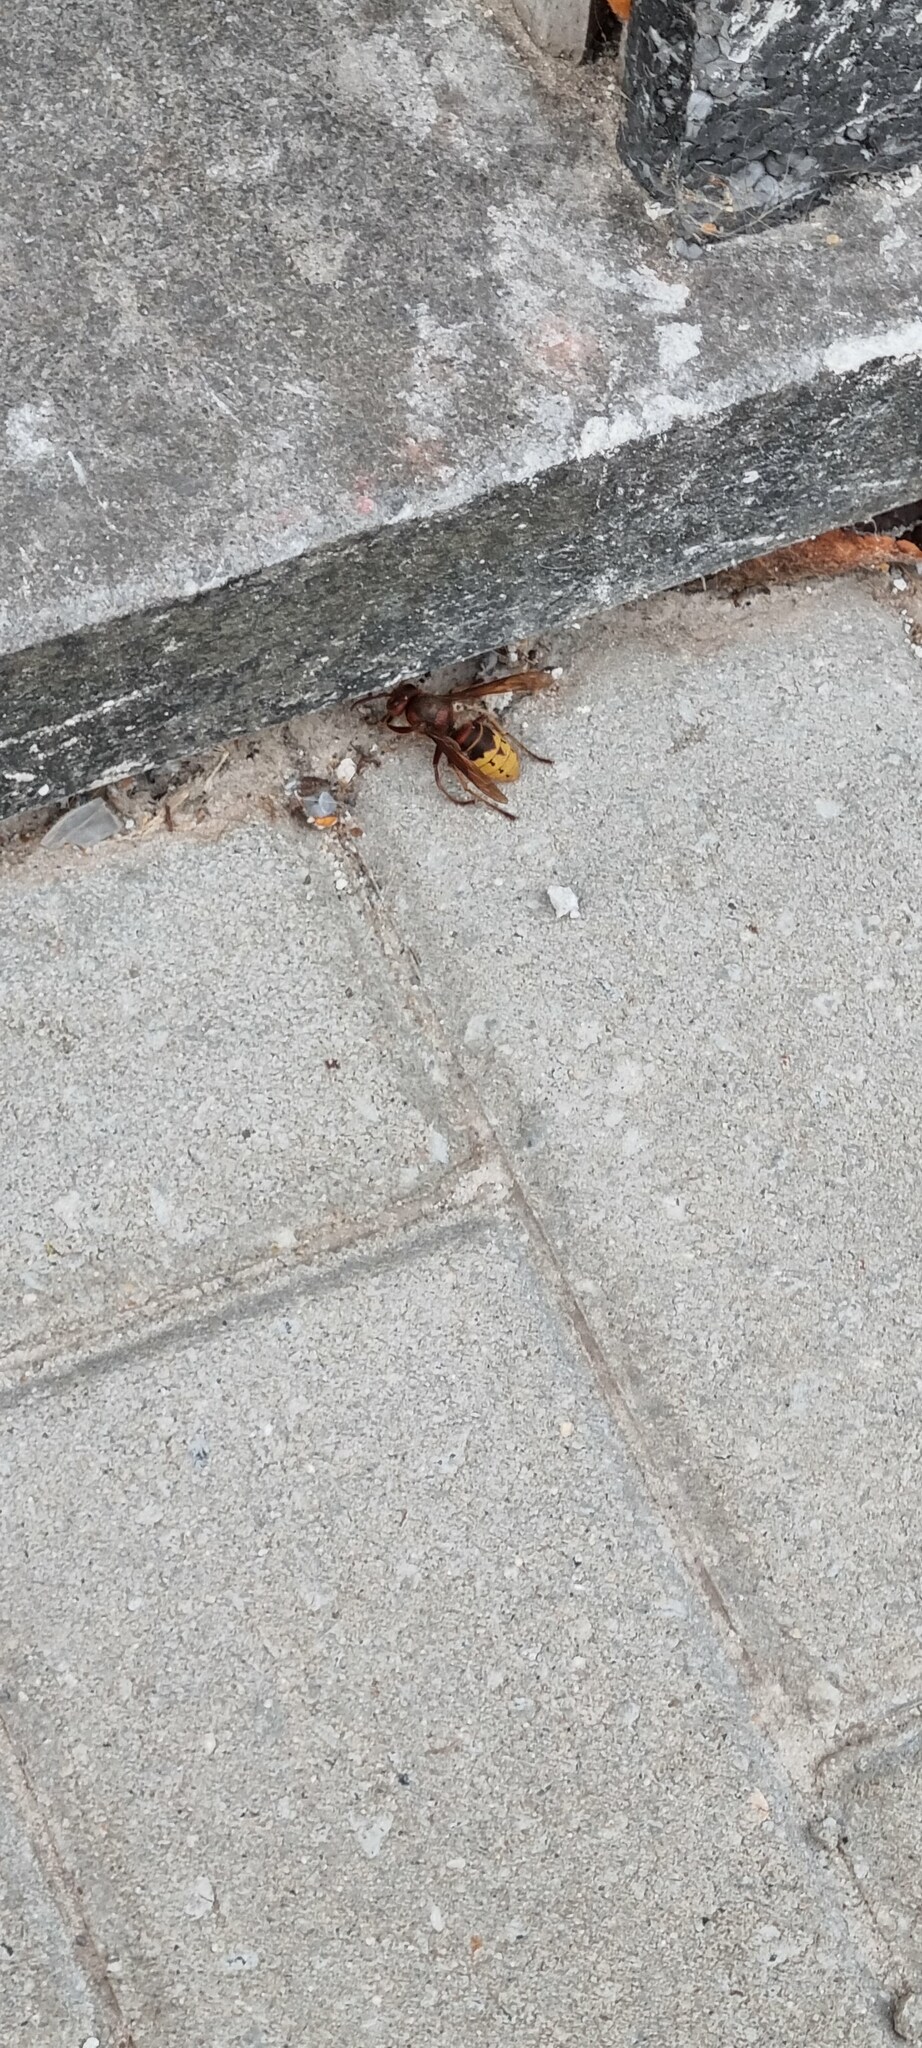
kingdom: Animalia
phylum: Arthropoda
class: Insecta
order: Hymenoptera
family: Vespidae
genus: Vespa
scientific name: Vespa crabro
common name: Hornet
